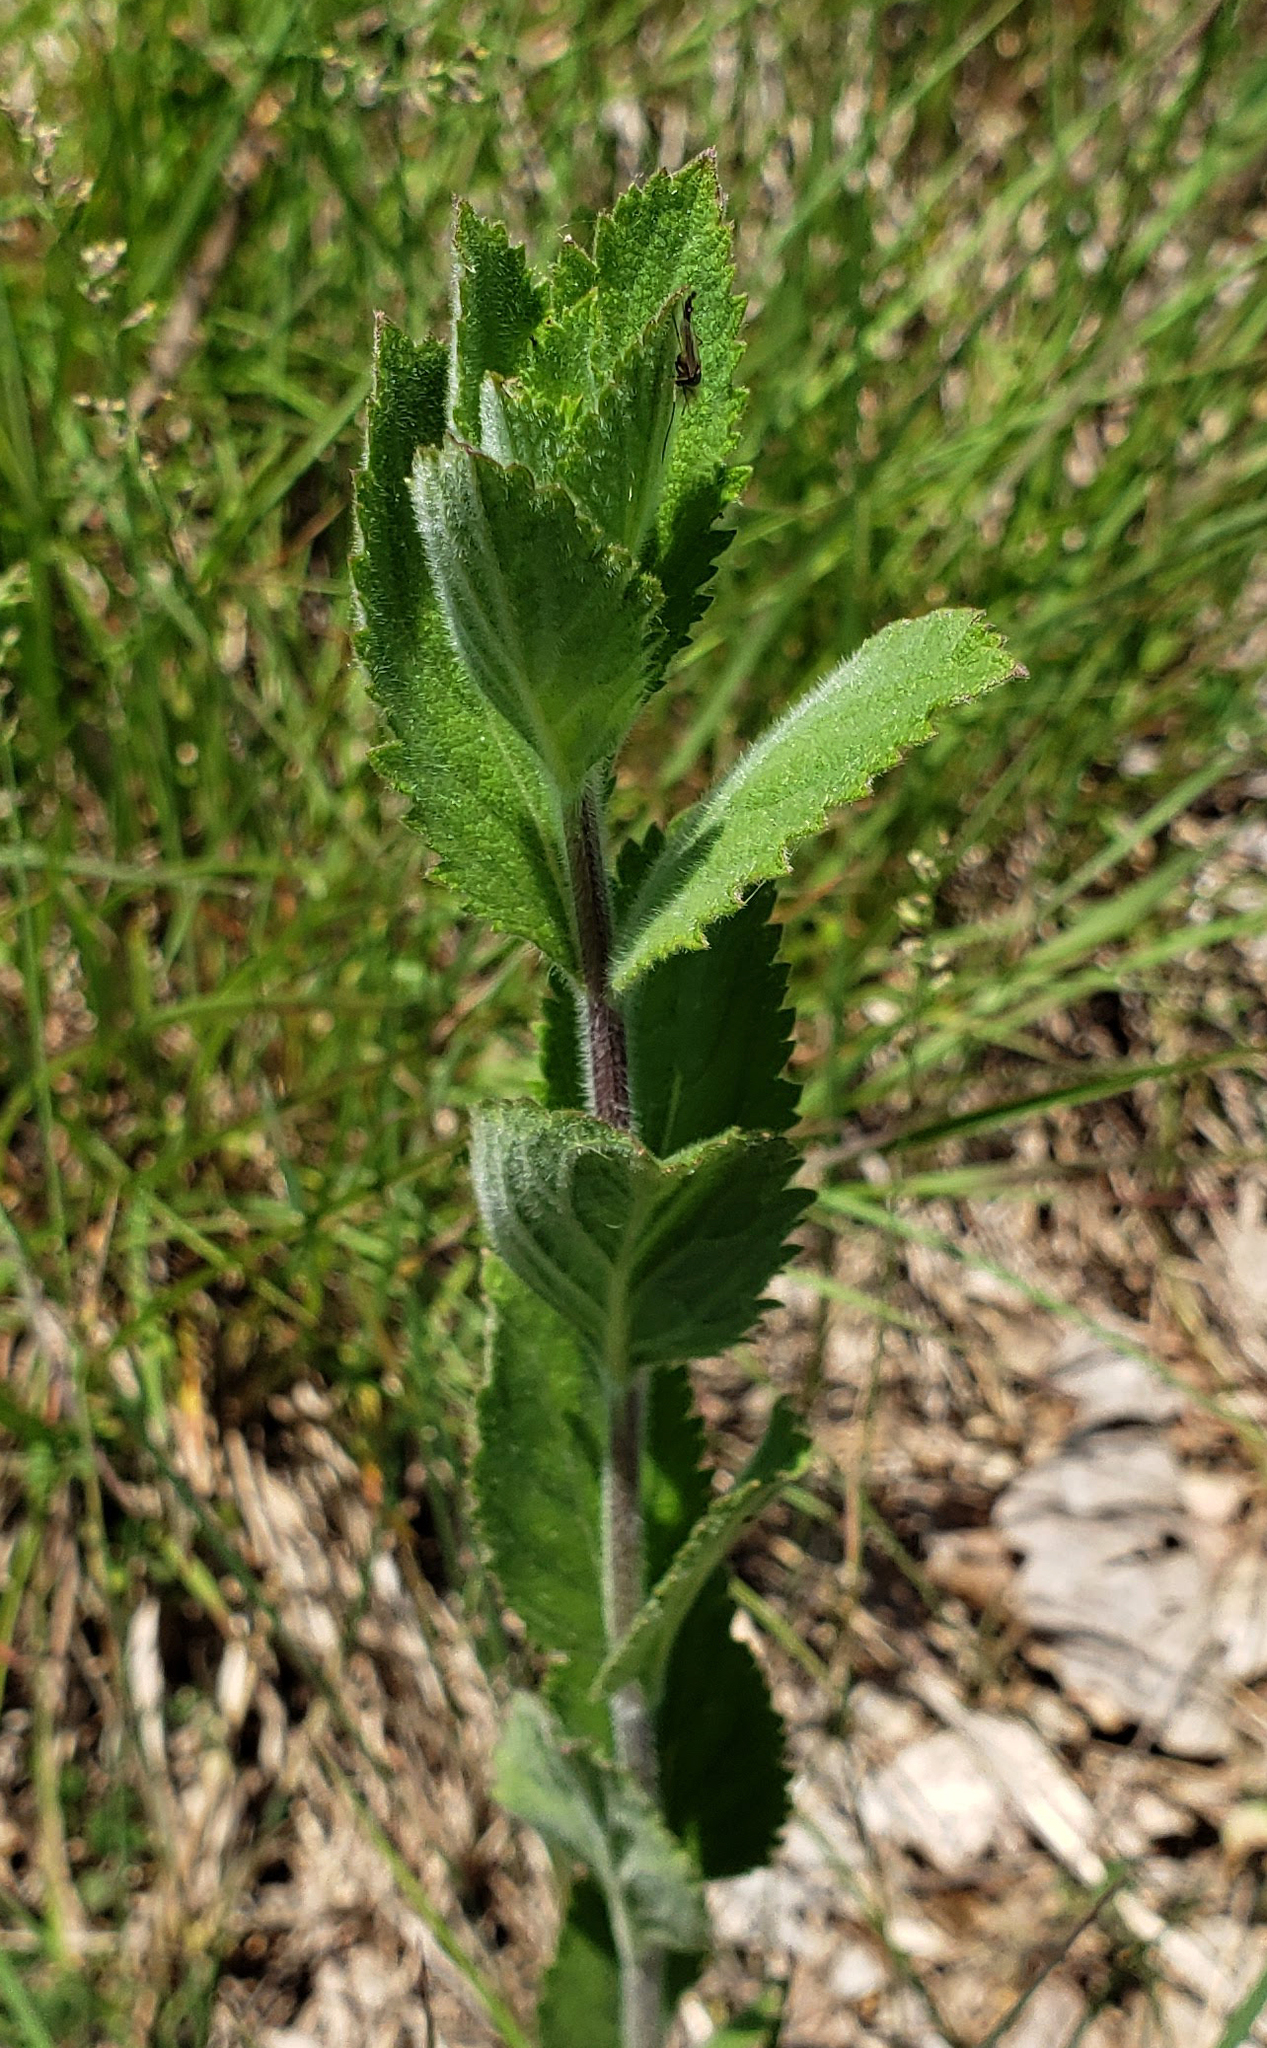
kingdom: Plantae
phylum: Tracheophyta
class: Magnoliopsida
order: Lamiales
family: Verbenaceae
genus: Verbena
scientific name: Verbena stricta
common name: Hoary vervain
